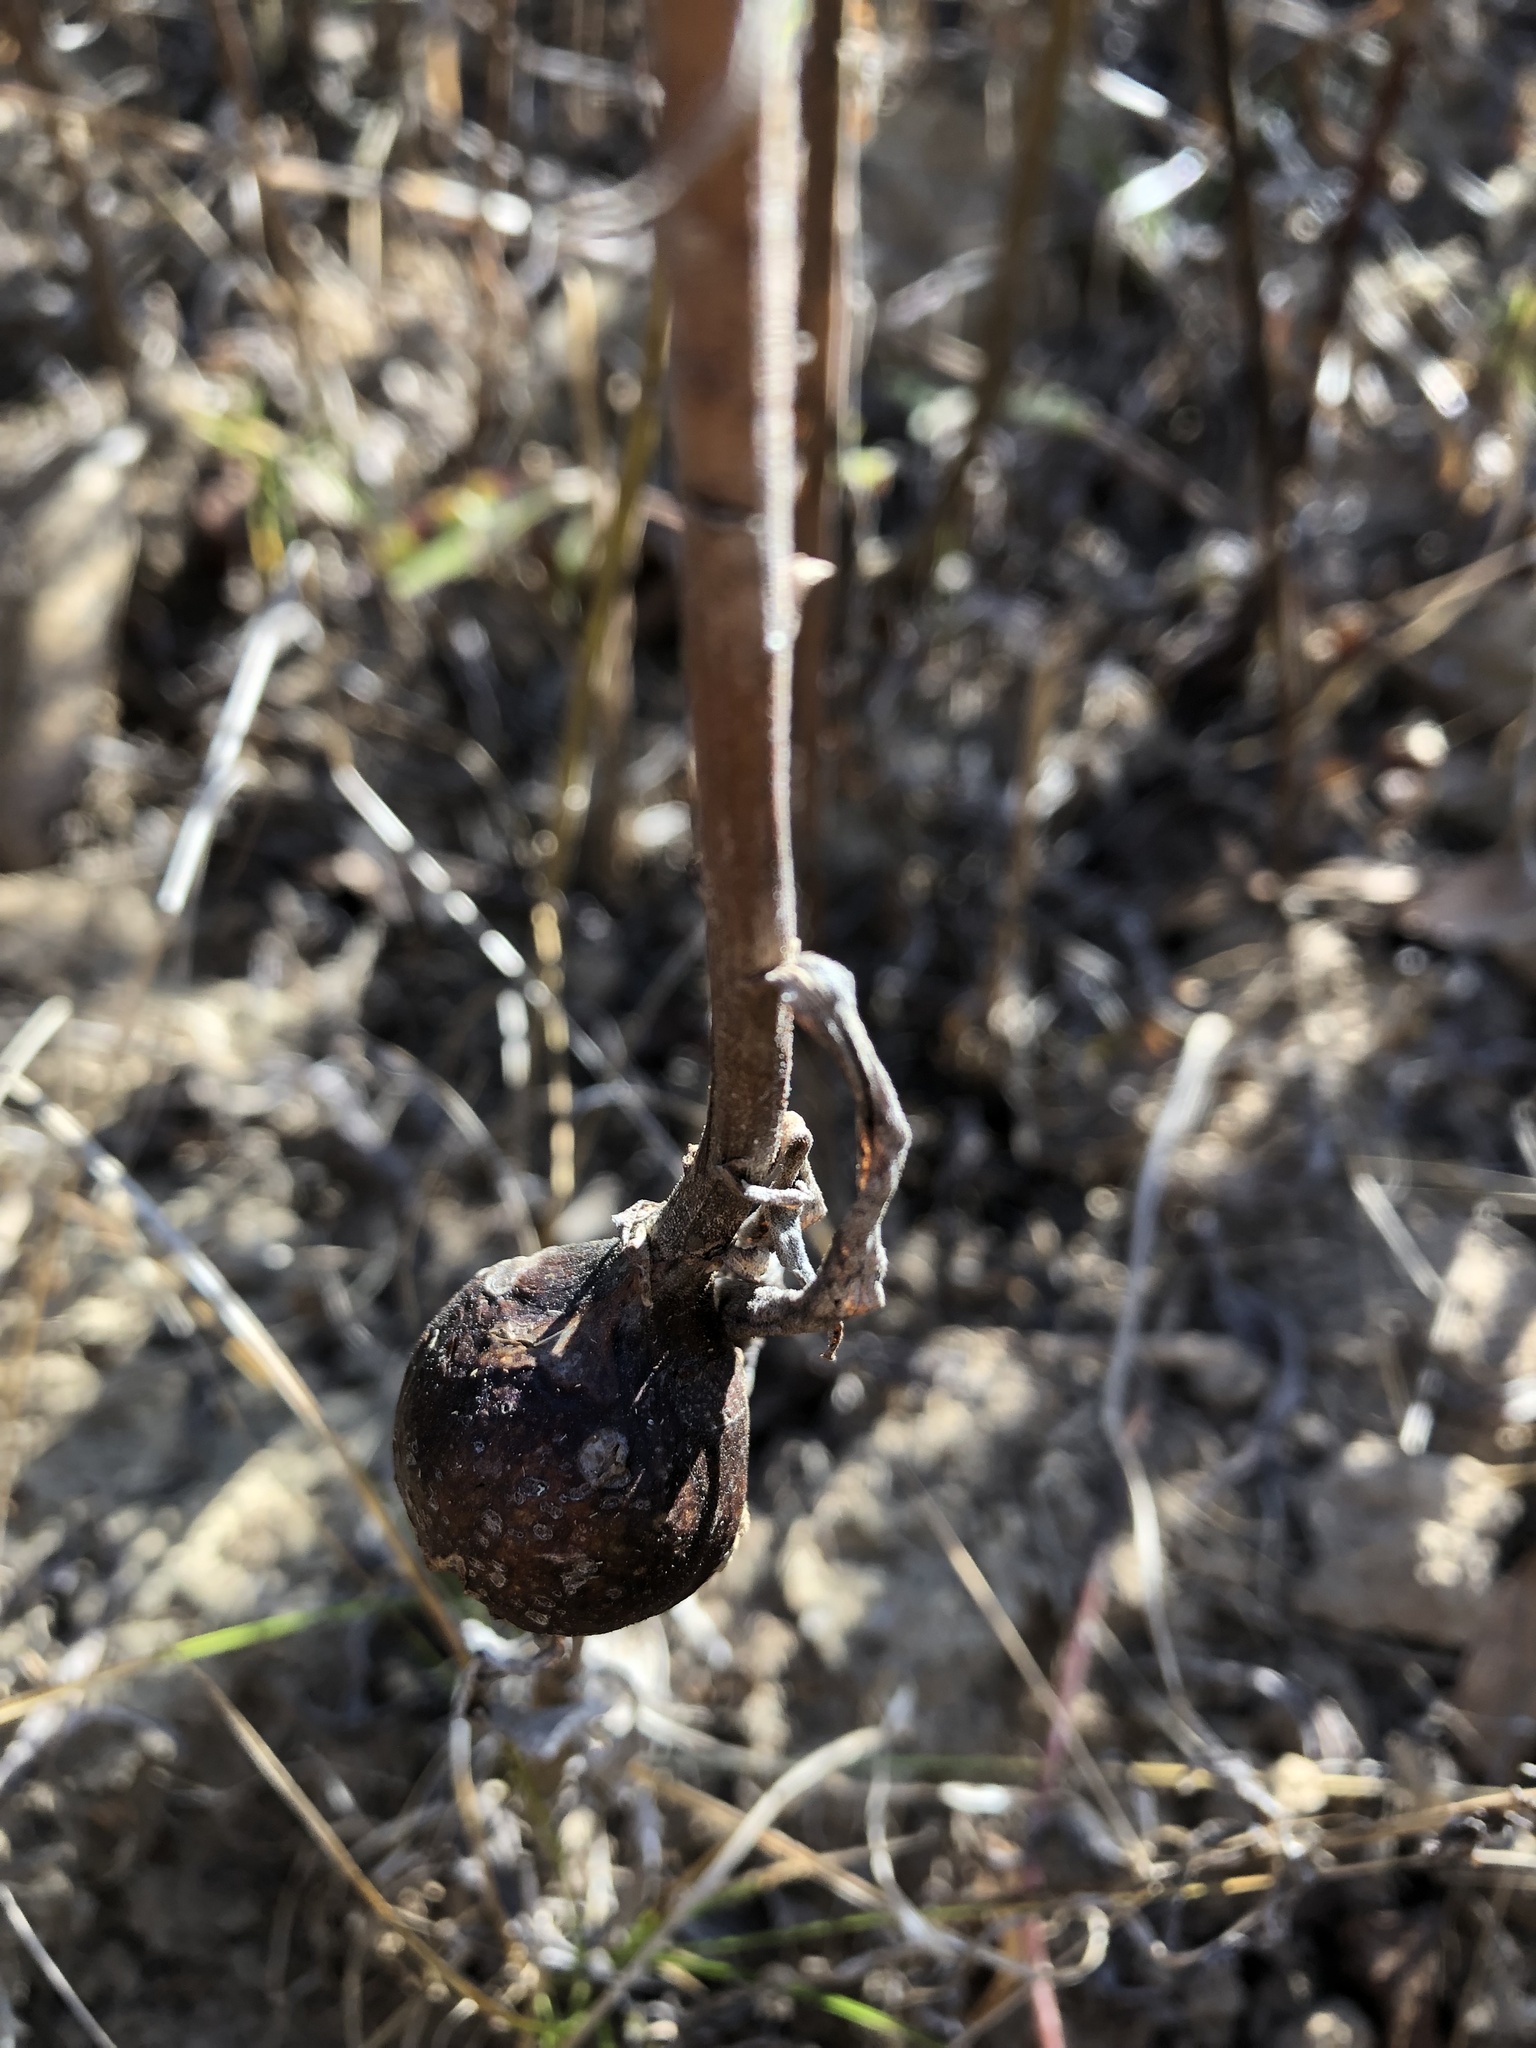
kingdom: Animalia
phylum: Arthropoda
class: Insecta
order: Diptera
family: Tephritidae
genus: Eurosta
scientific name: Eurosta solidaginis
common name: Goldenrod gall fly
